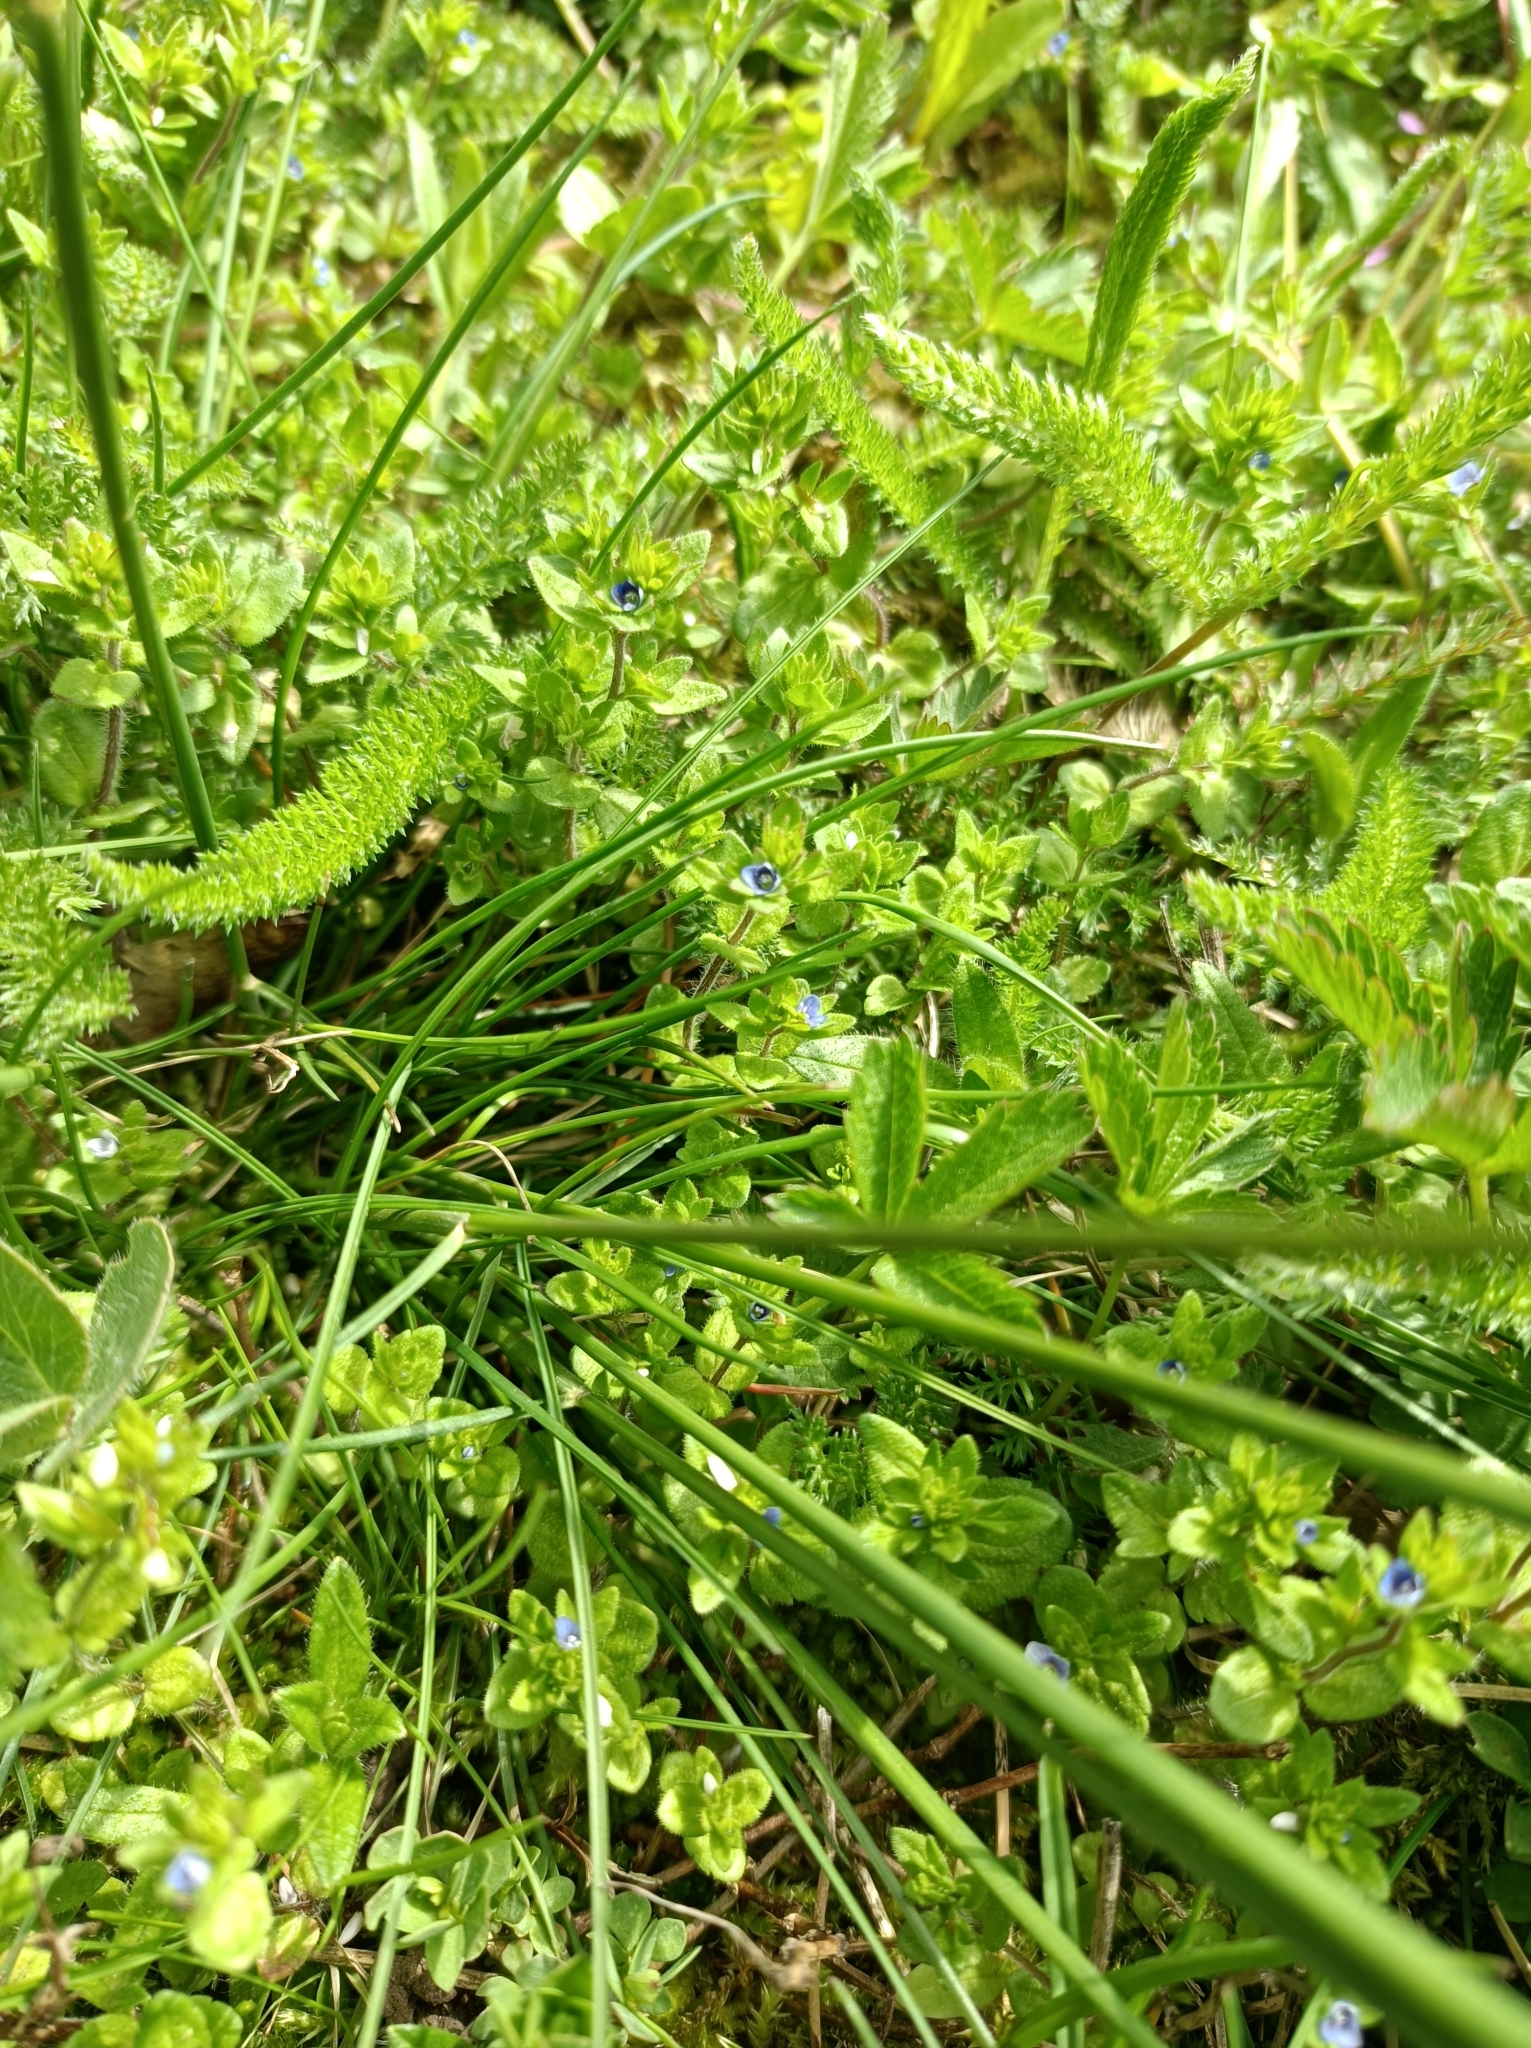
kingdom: Plantae
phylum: Tracheophyta
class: Magnoliopsida
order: Lamiales
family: Plantaginaceae
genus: Veronica
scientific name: Veronica arvensis
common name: Corn speedwell
